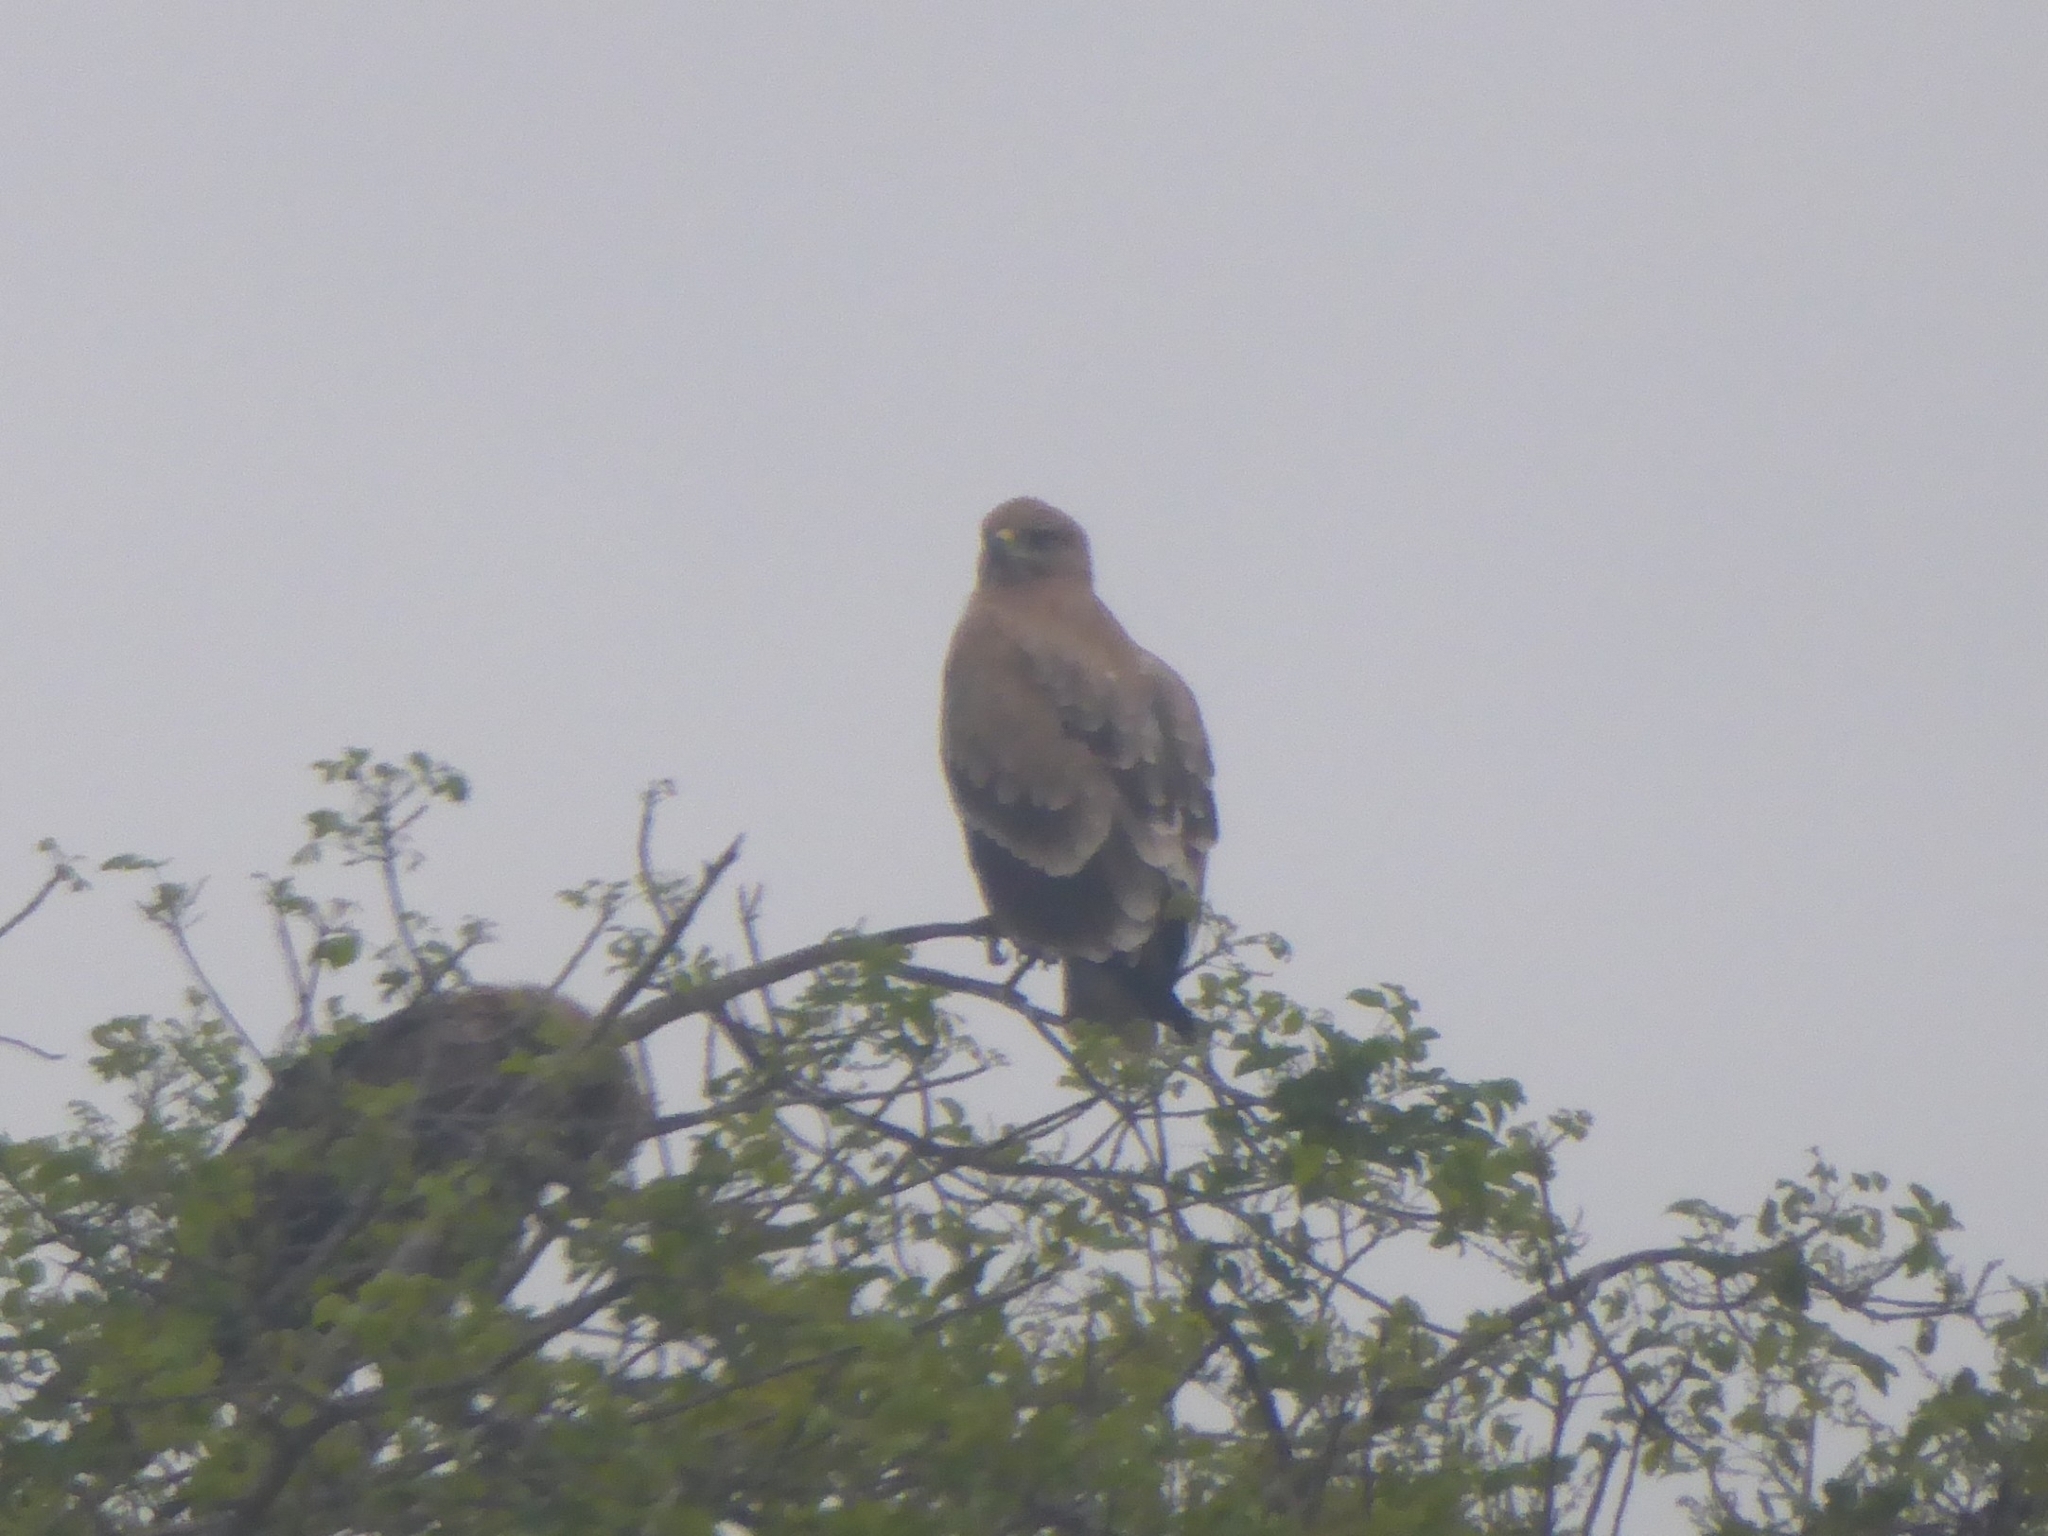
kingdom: Animalia
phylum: Chordata
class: Aves
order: Accipitriformes
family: Accipitridae
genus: Aquila
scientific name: Aquila rapax
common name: Tawny eagle
